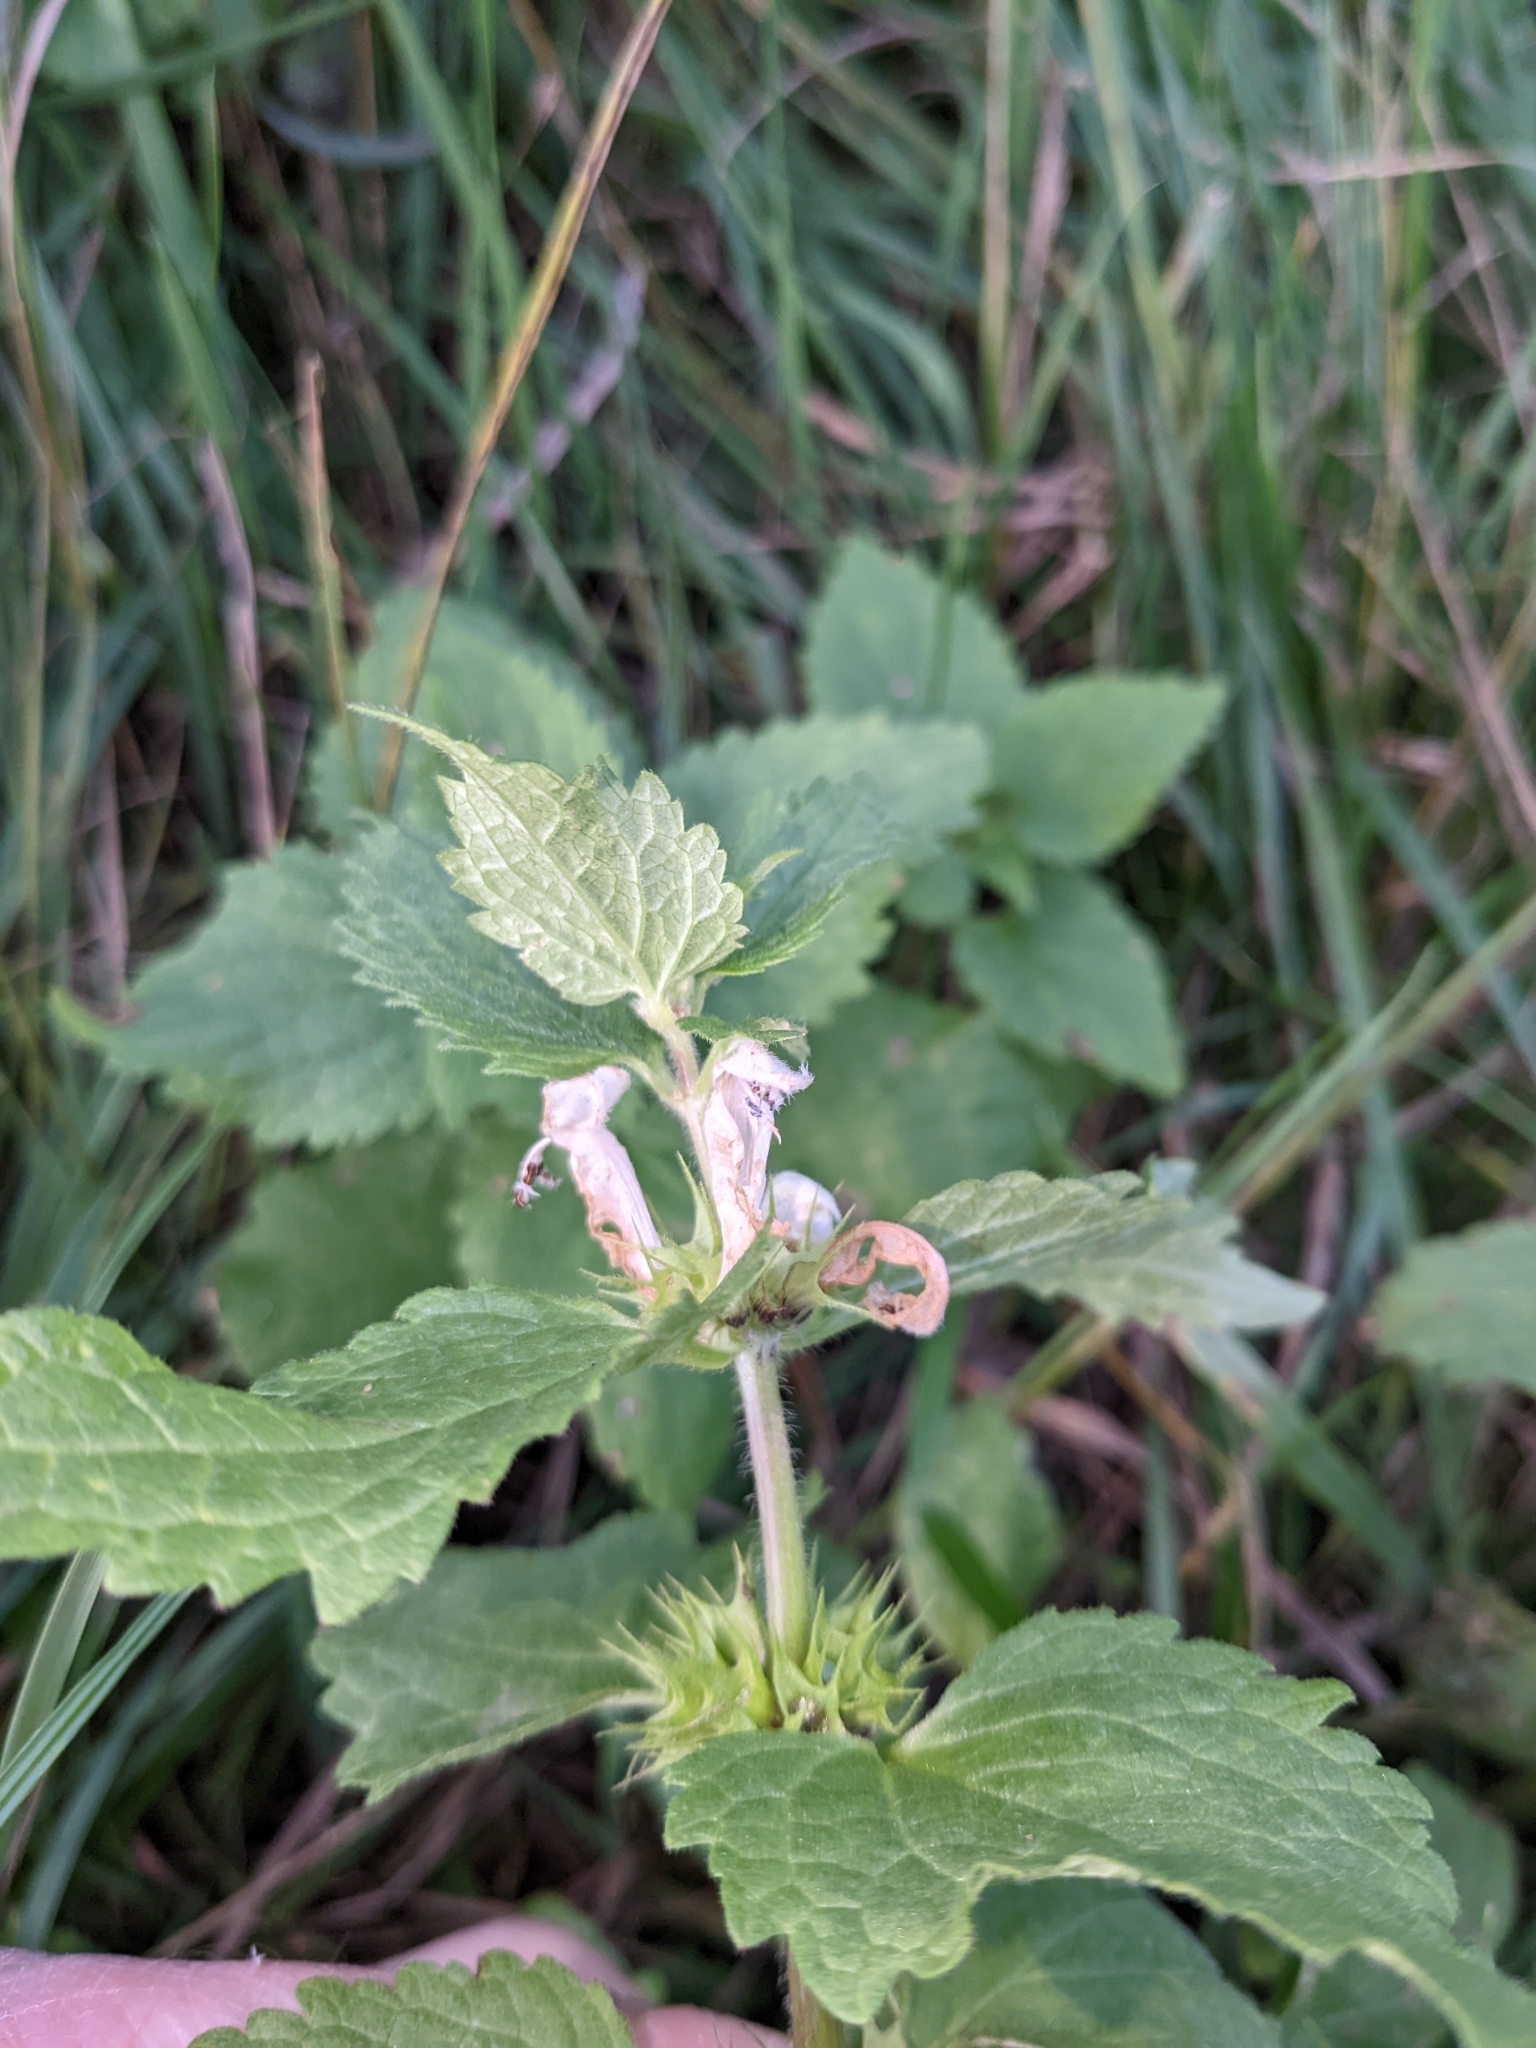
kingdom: Plantae
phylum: Tracheophyta
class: Magnoliopsida
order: Lamiales
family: Lamiaceae
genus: Lamium
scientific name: Lamium album
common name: White dead-nettle
